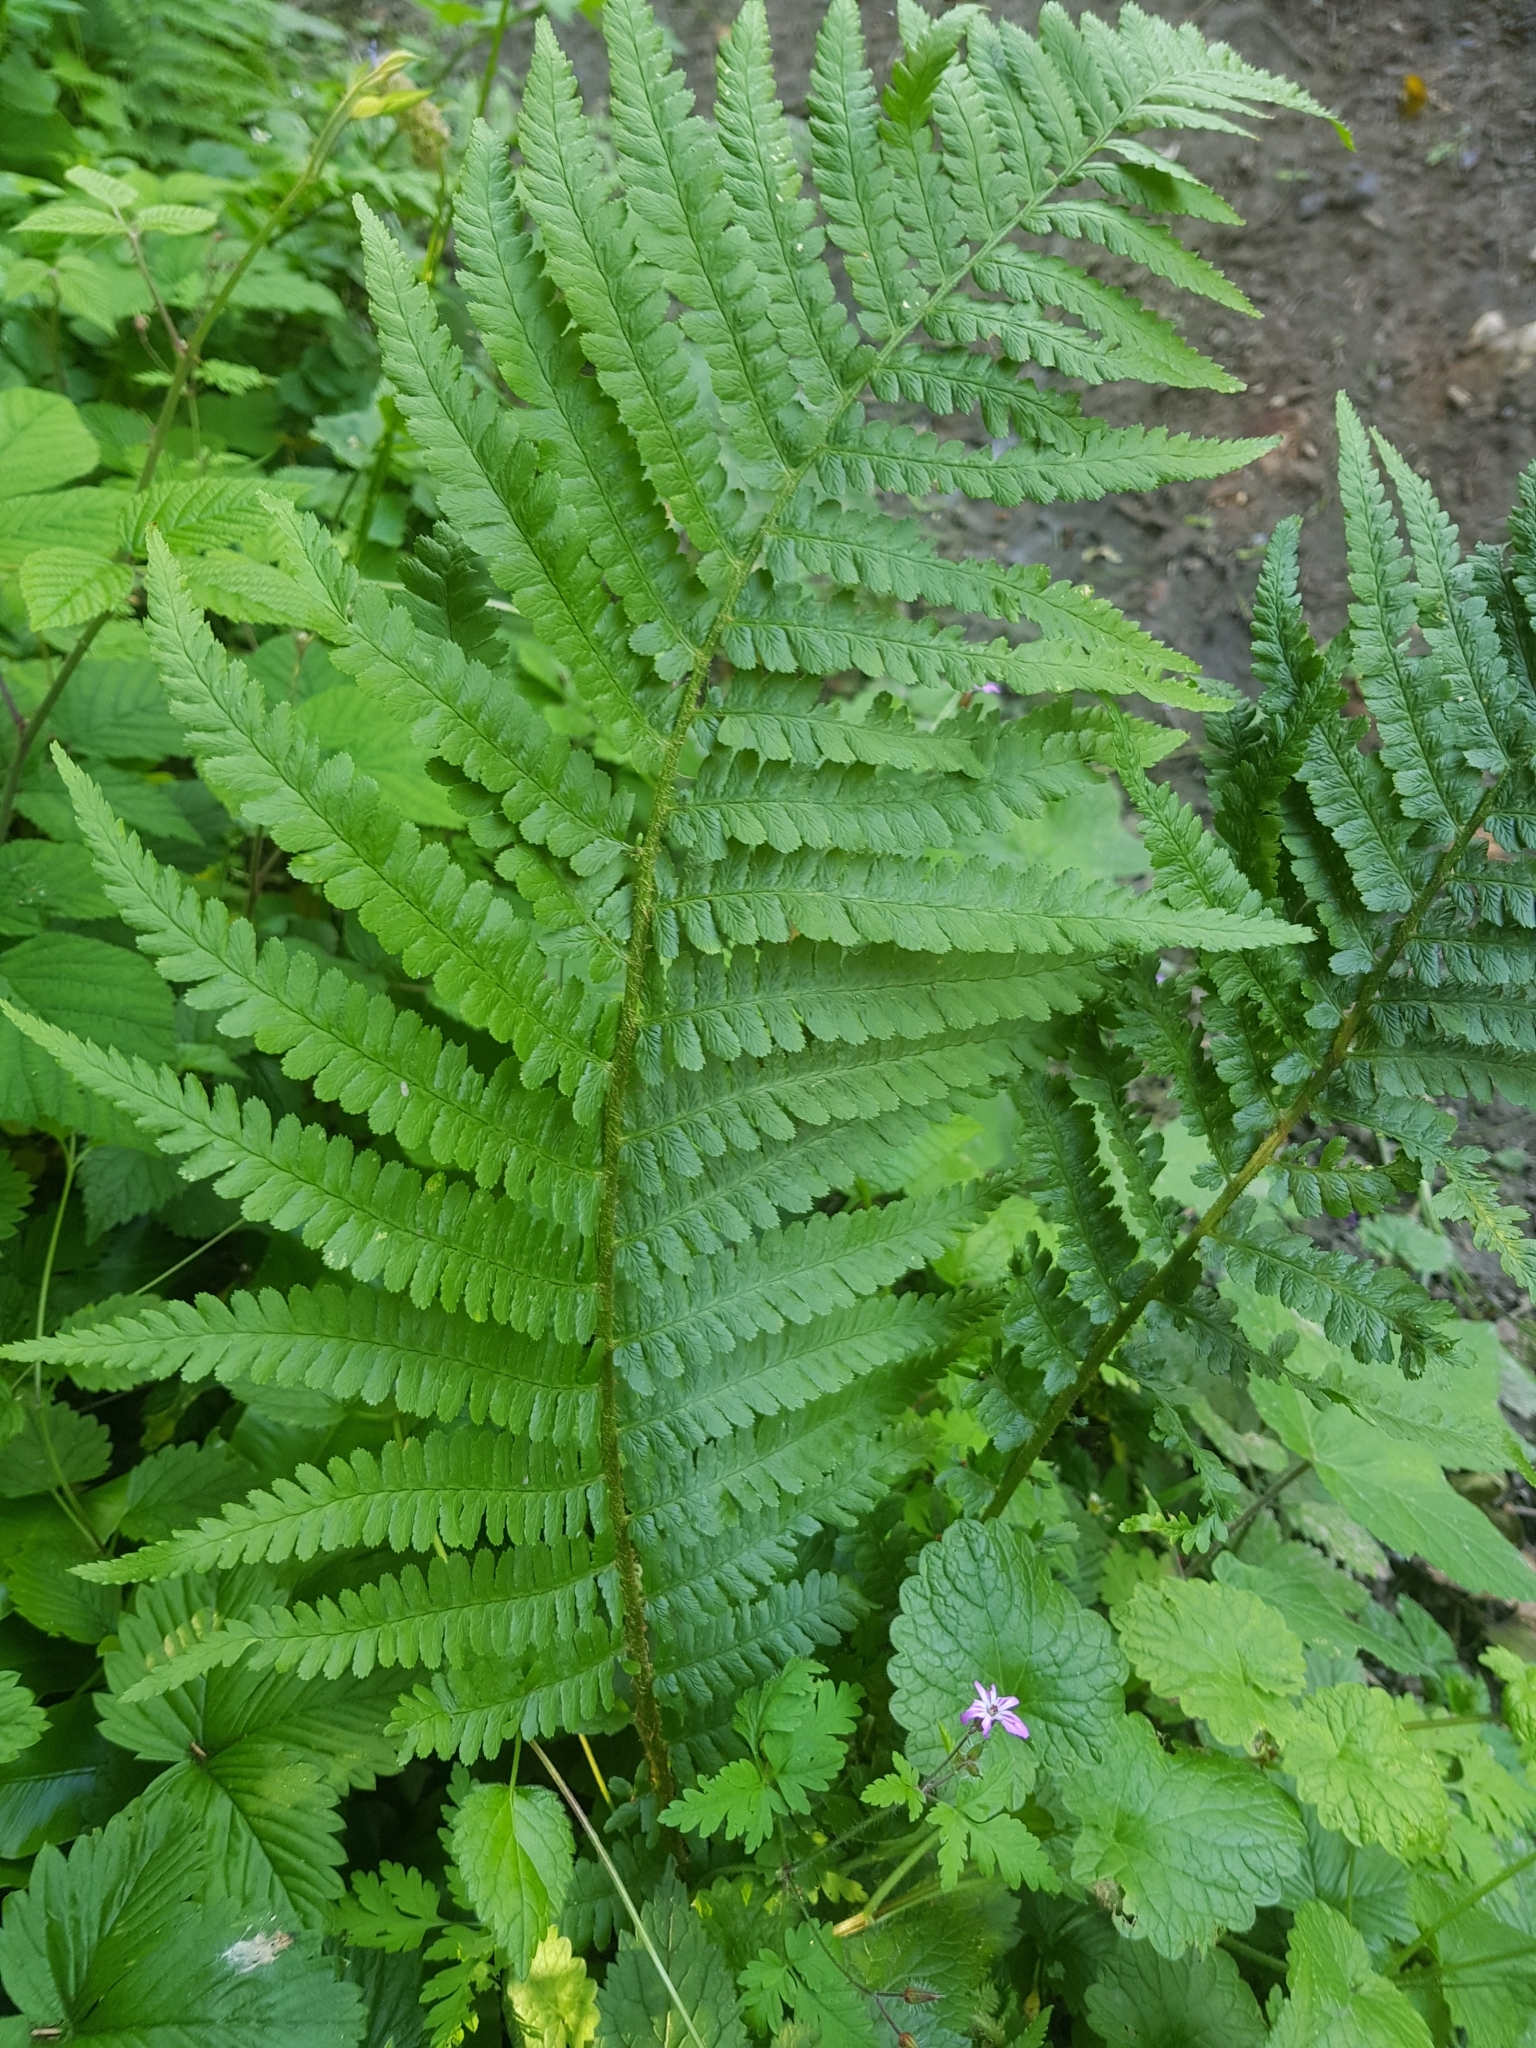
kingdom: Plantae
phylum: Tracheophyta
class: Polypodiopsida
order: Polypodiales
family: Dryopteridaceae
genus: Dryopteris
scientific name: Dryopteris filix-mas
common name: Male fern
